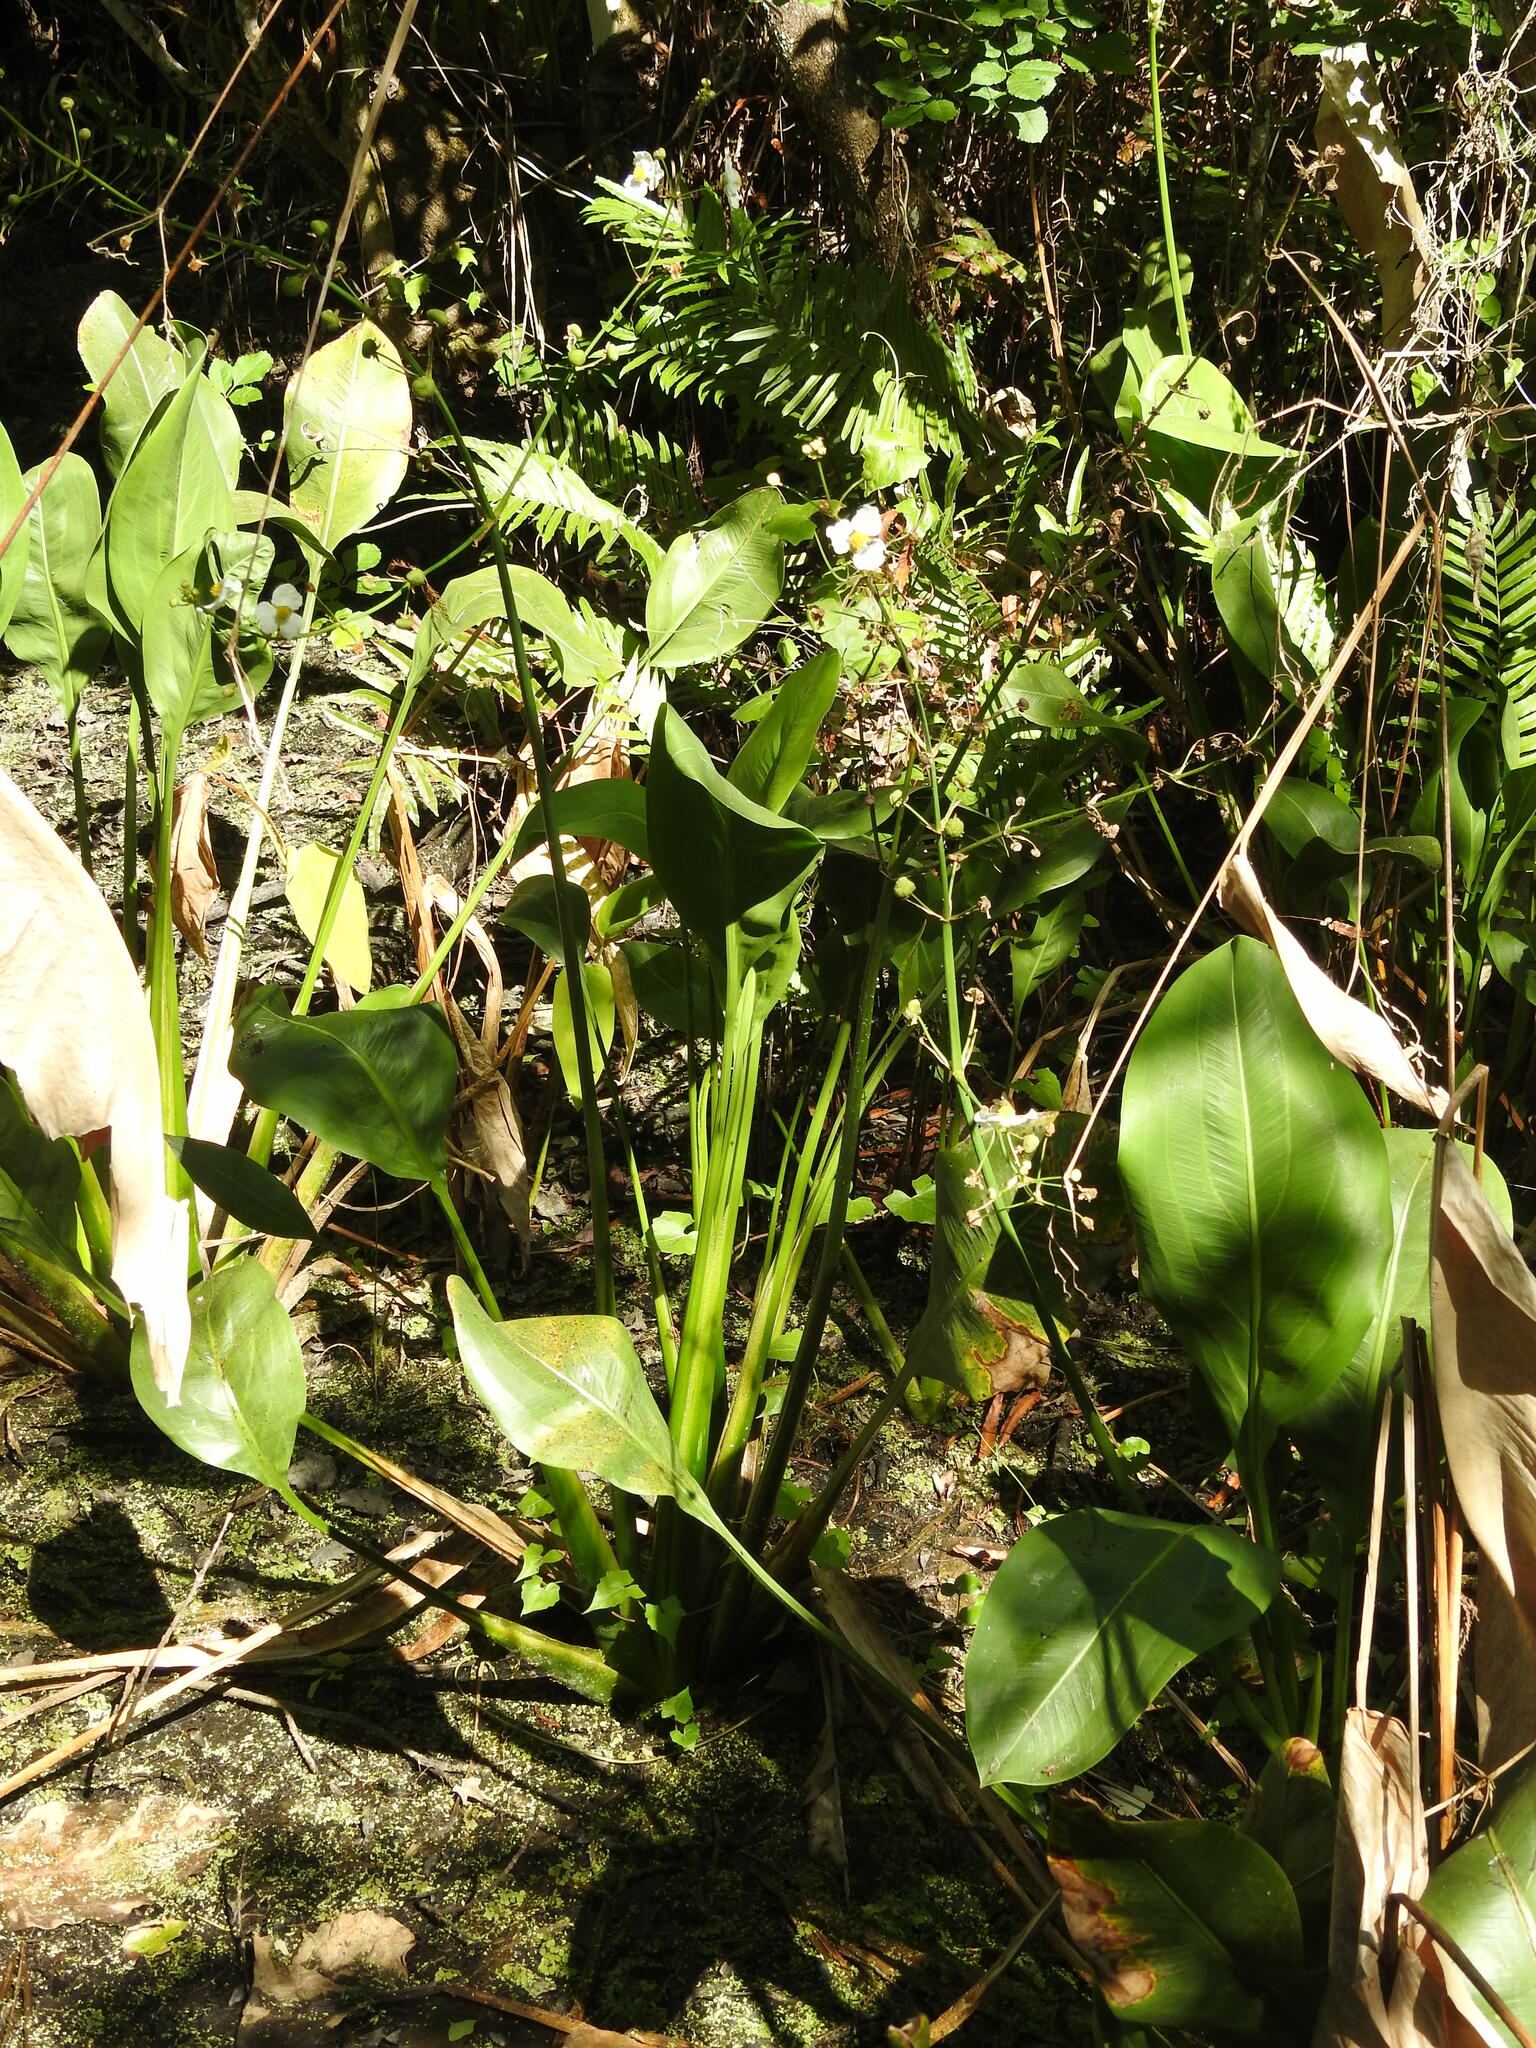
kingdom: Plantae
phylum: Tracheophyta
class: Liliopsida
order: Alismatales
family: Alismataceae
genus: Sagittaria
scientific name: Sagittaria lancifolia
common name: Lance-leaf arrowhead
